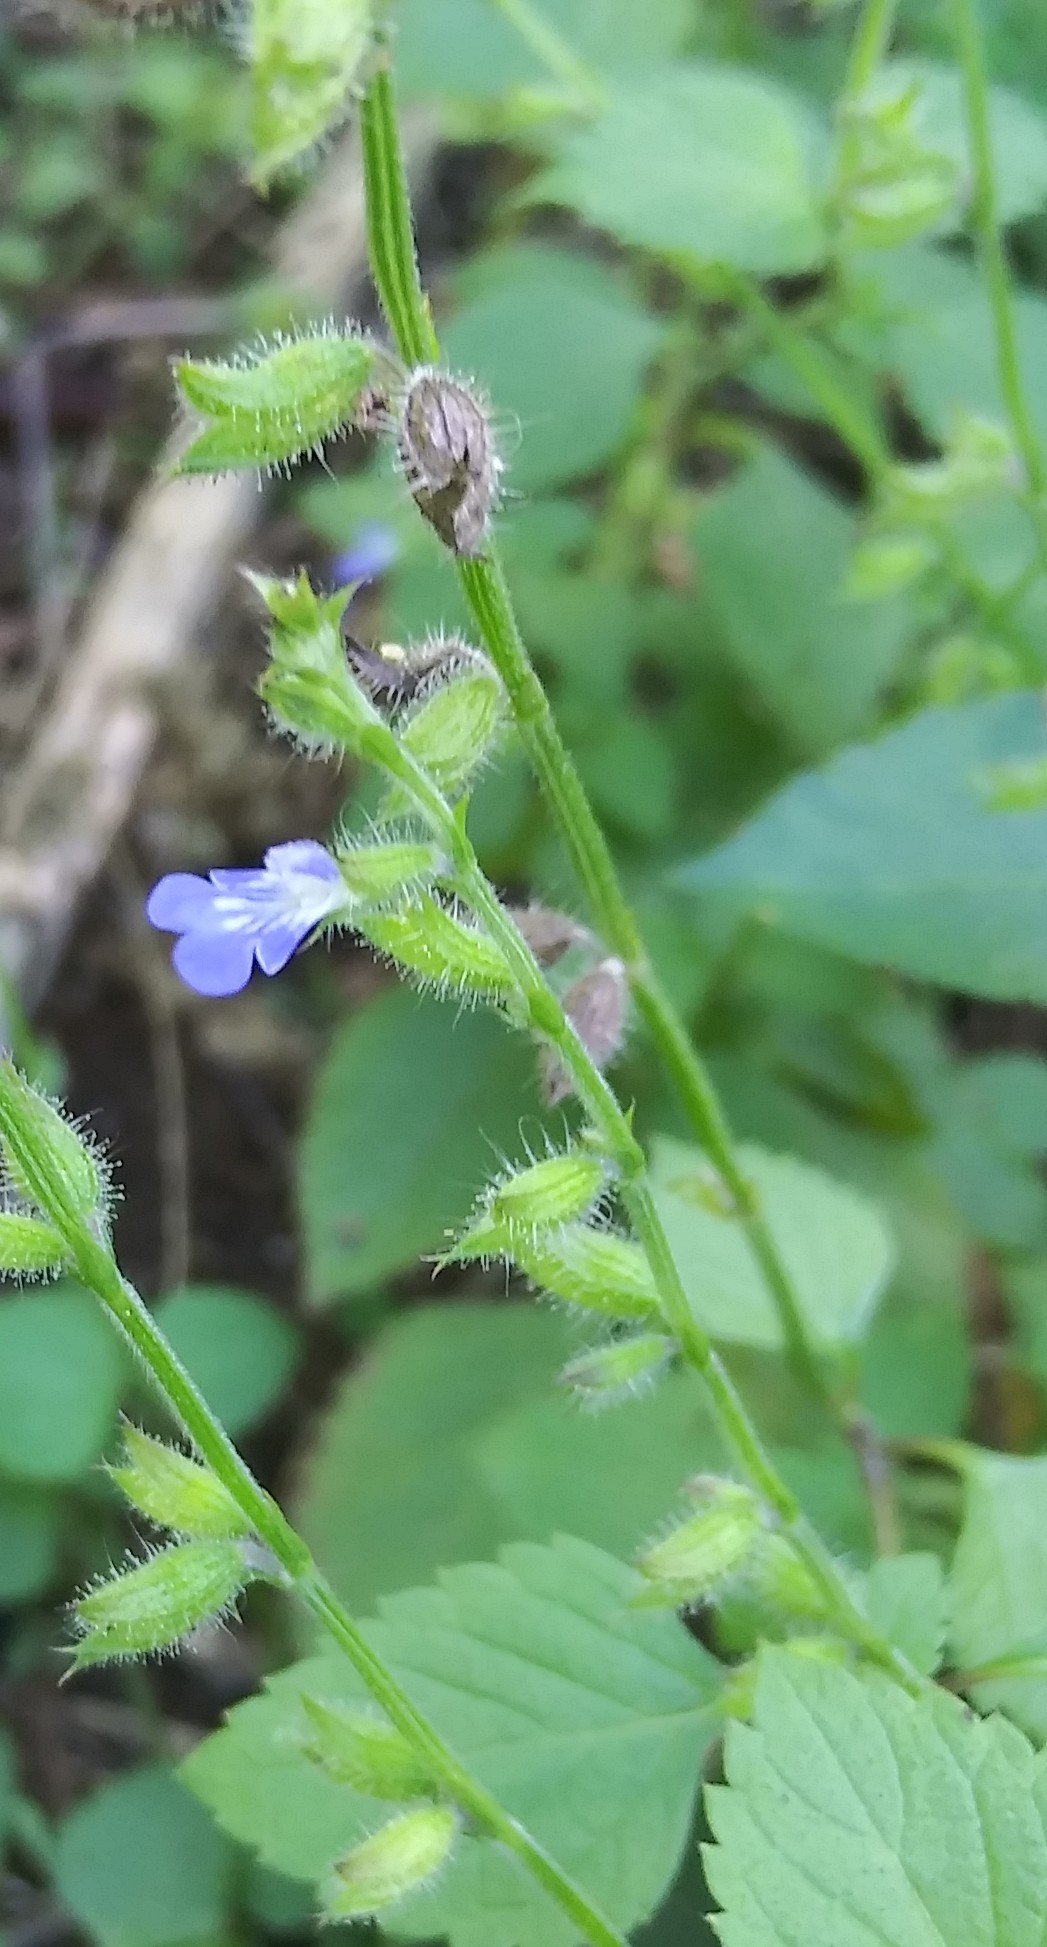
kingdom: Plantae
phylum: Tracheophyta
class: Magnoliopsida
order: Lamiales
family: Lamiaceae
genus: Salvia
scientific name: Salvia misella
